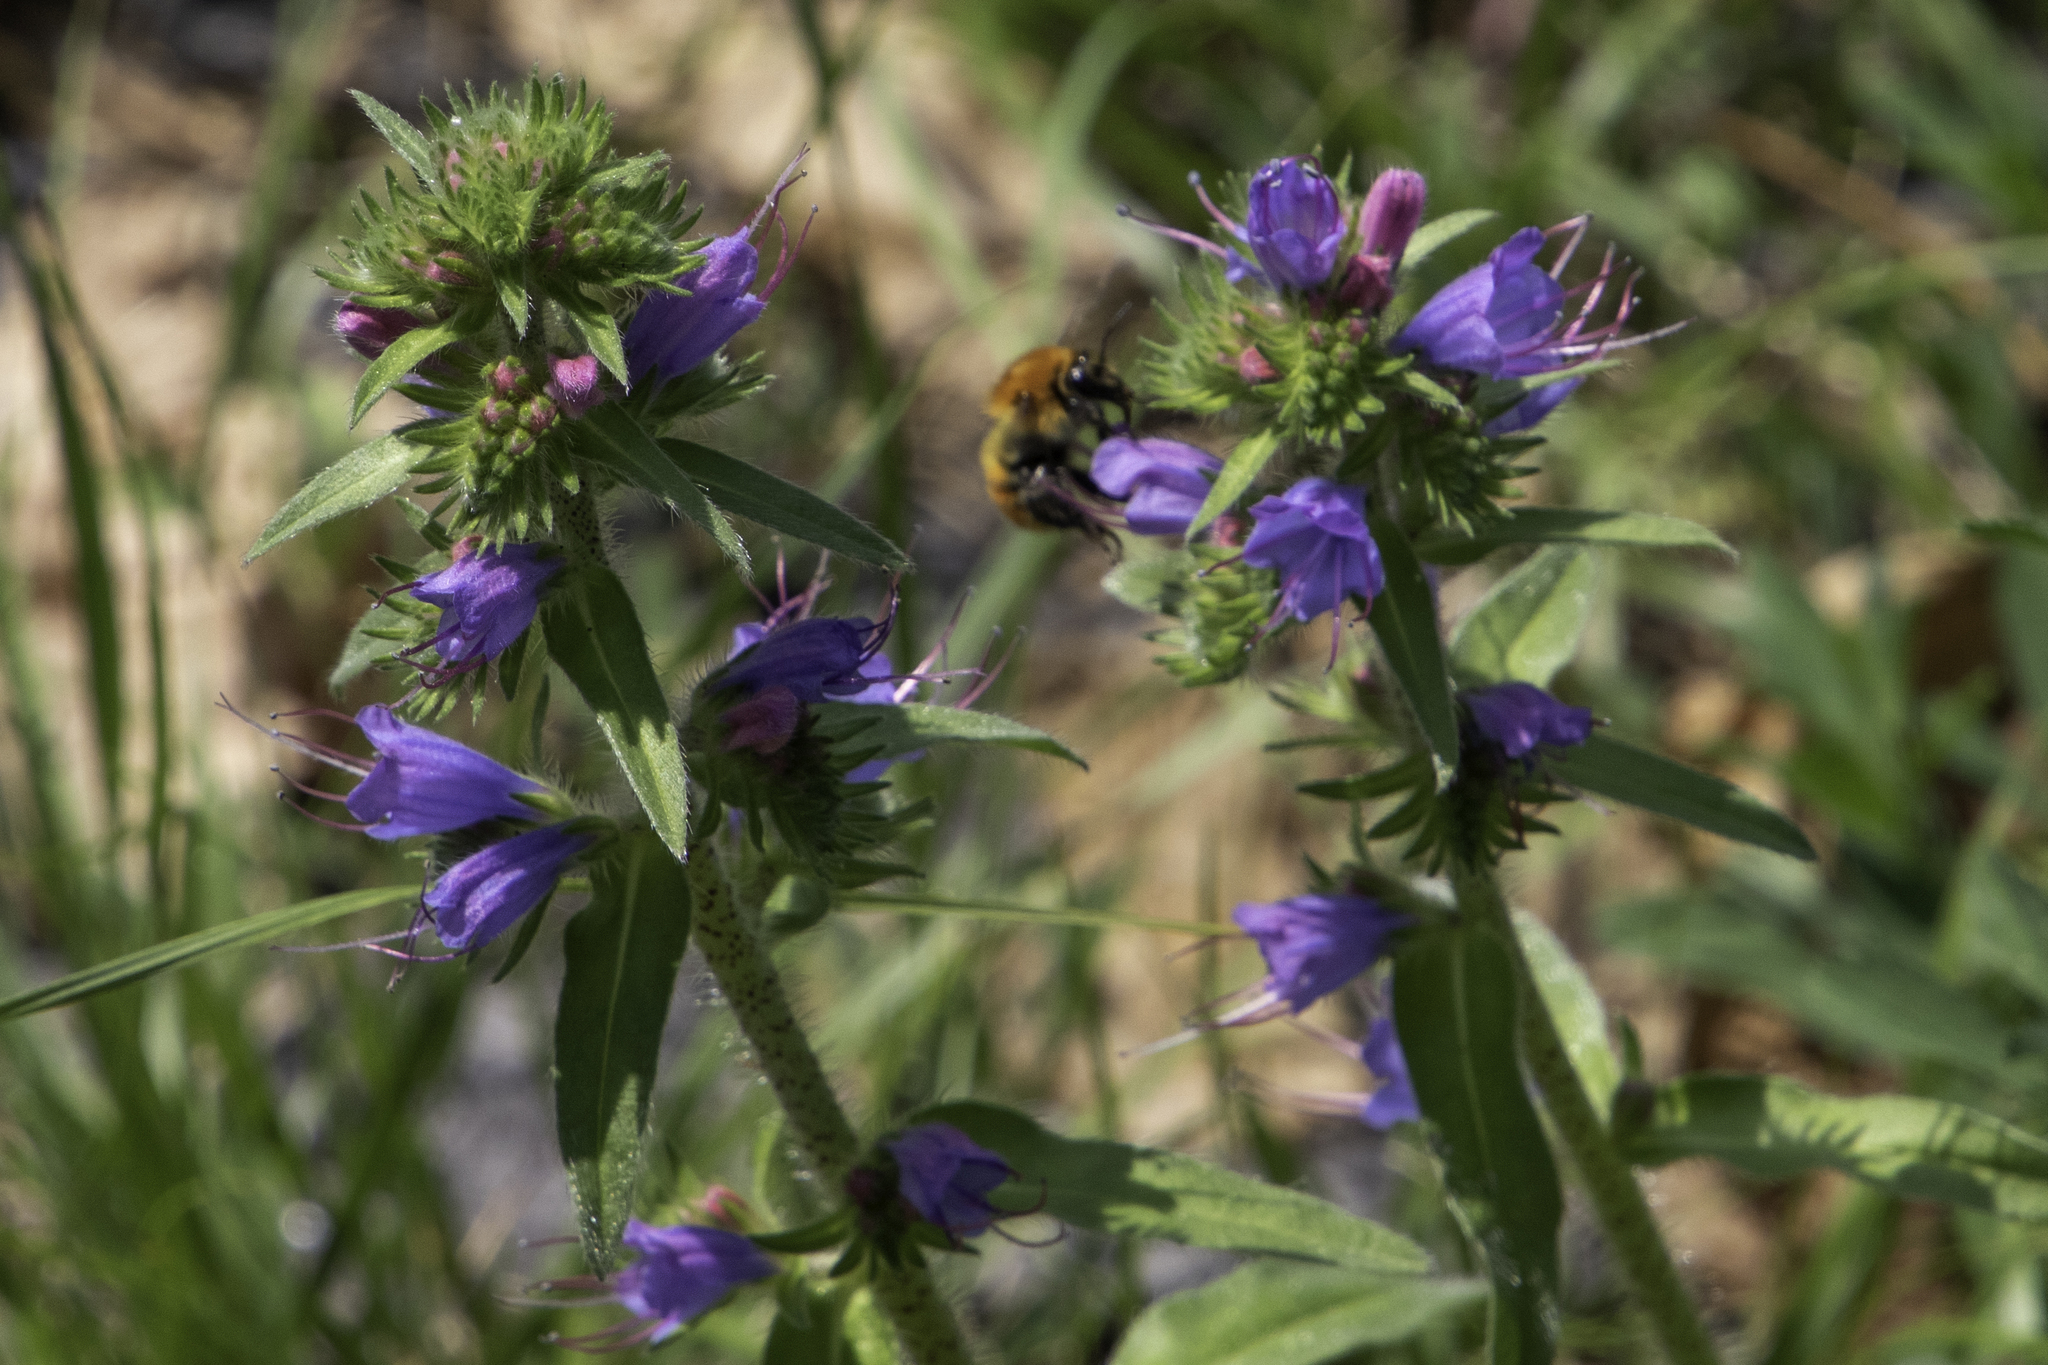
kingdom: Plantae
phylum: Tracheophyta
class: Magnoliopsida
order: Boraginales
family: Boraginaceae
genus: Echium
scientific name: Echium vulgare
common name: Common viper's bugloss
